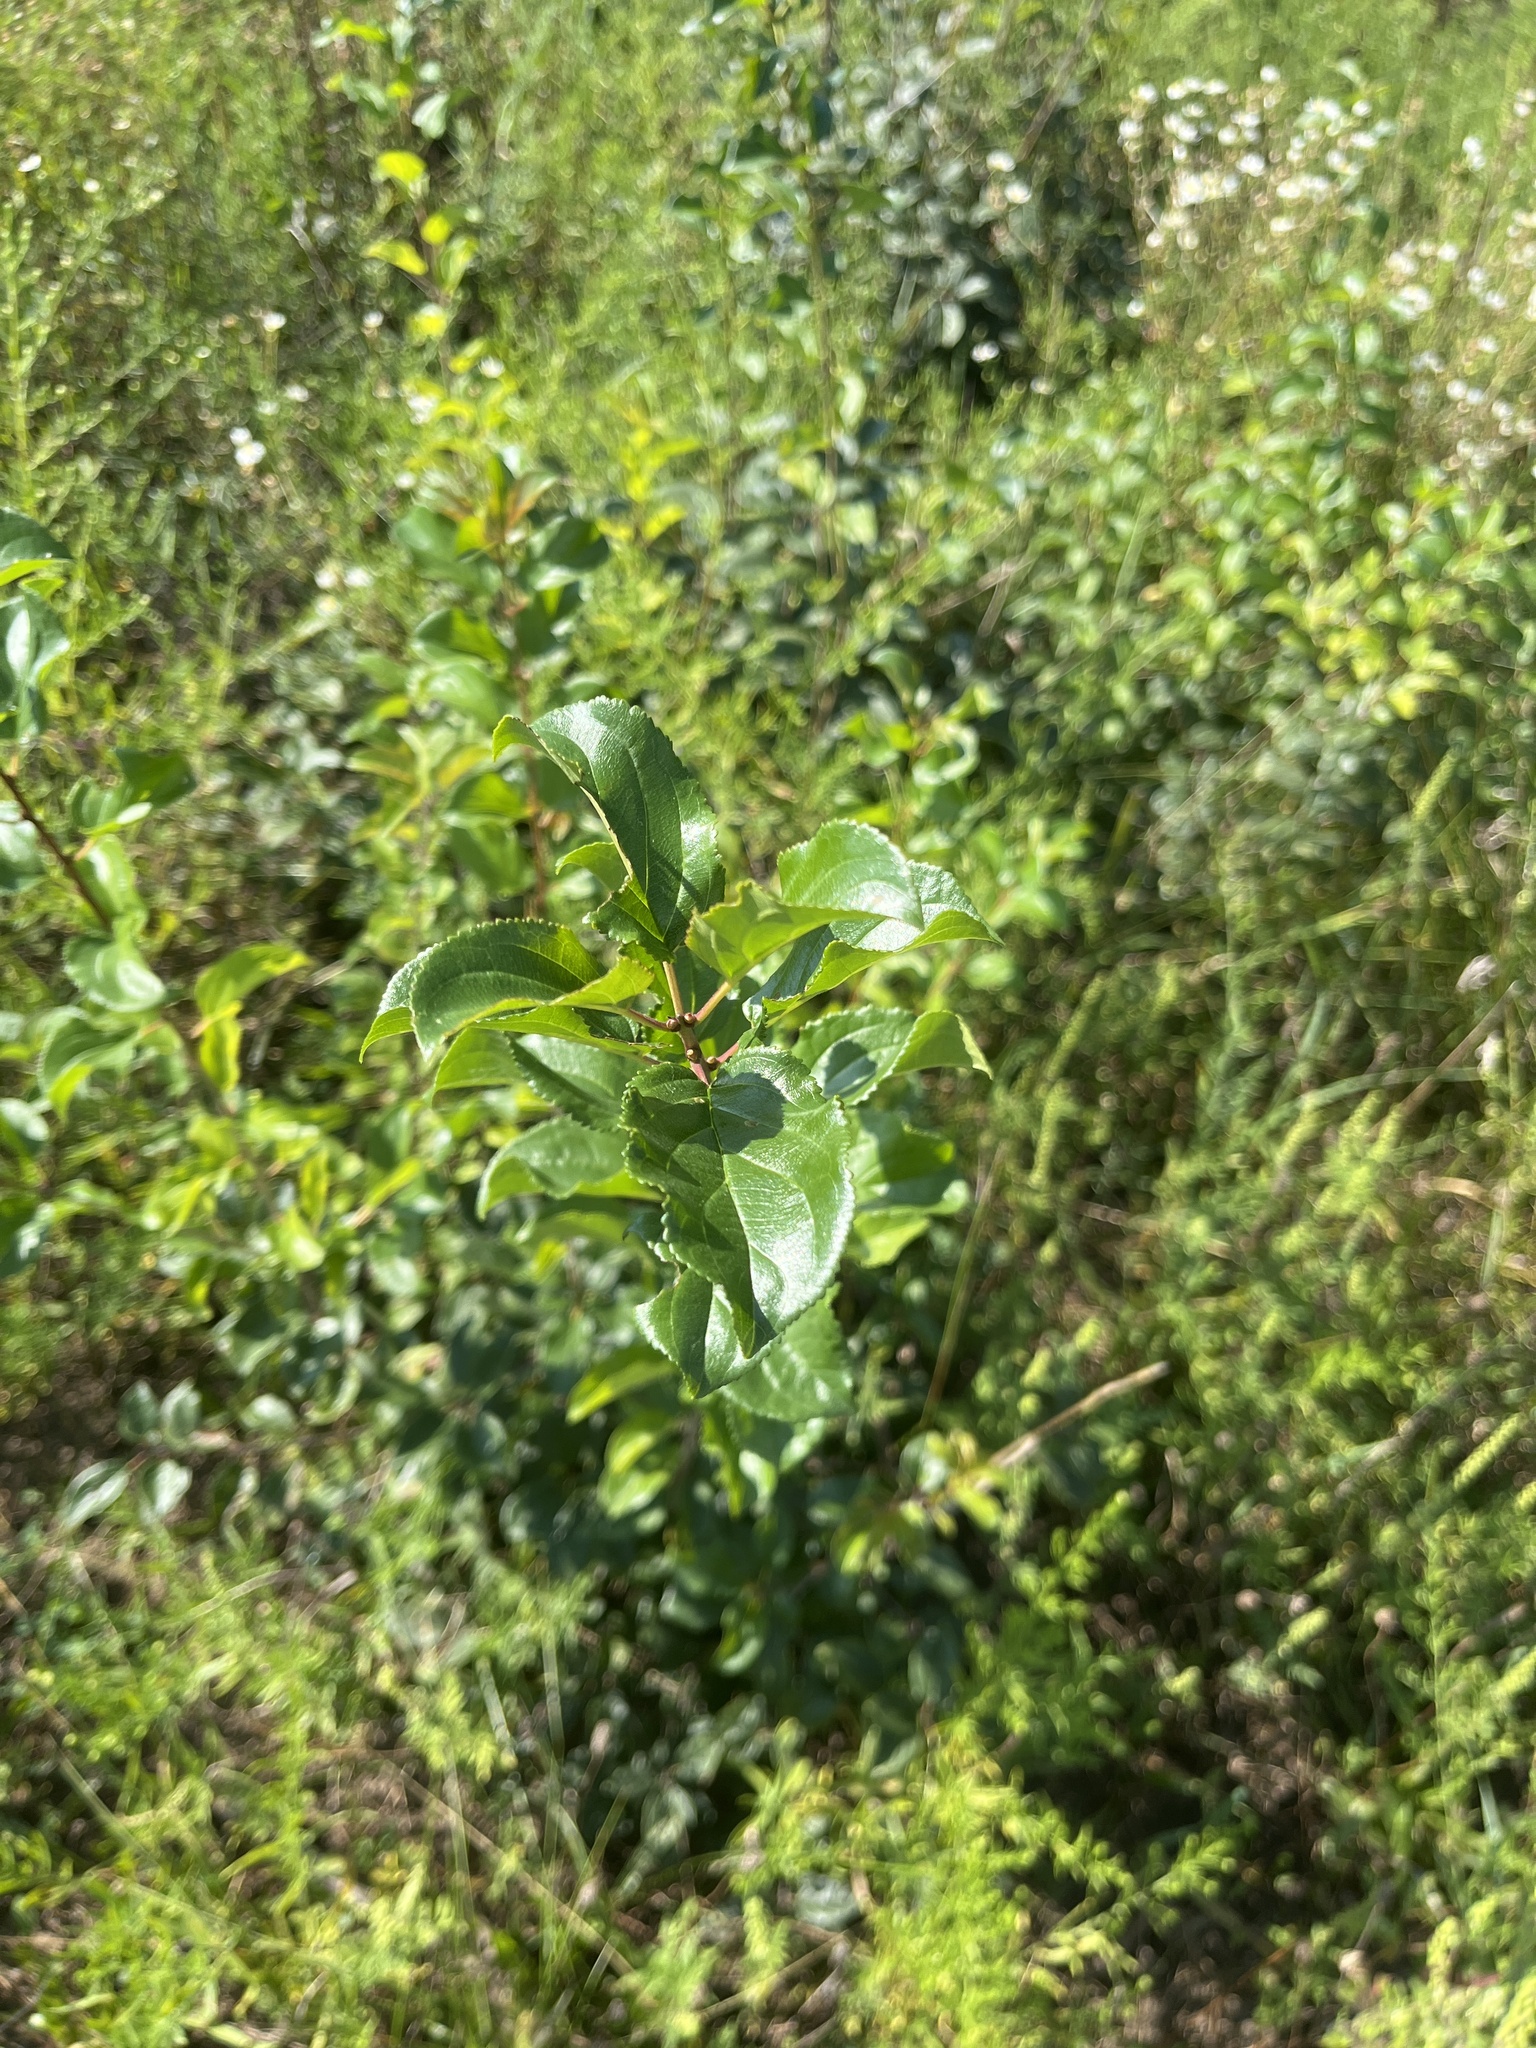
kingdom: Plantae
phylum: Tracheophyta
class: Magnoliopsida
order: Rosales
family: Rhamnaceae
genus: Rhamnus
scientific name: Rhamnus cathartica
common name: Common buckthorn
